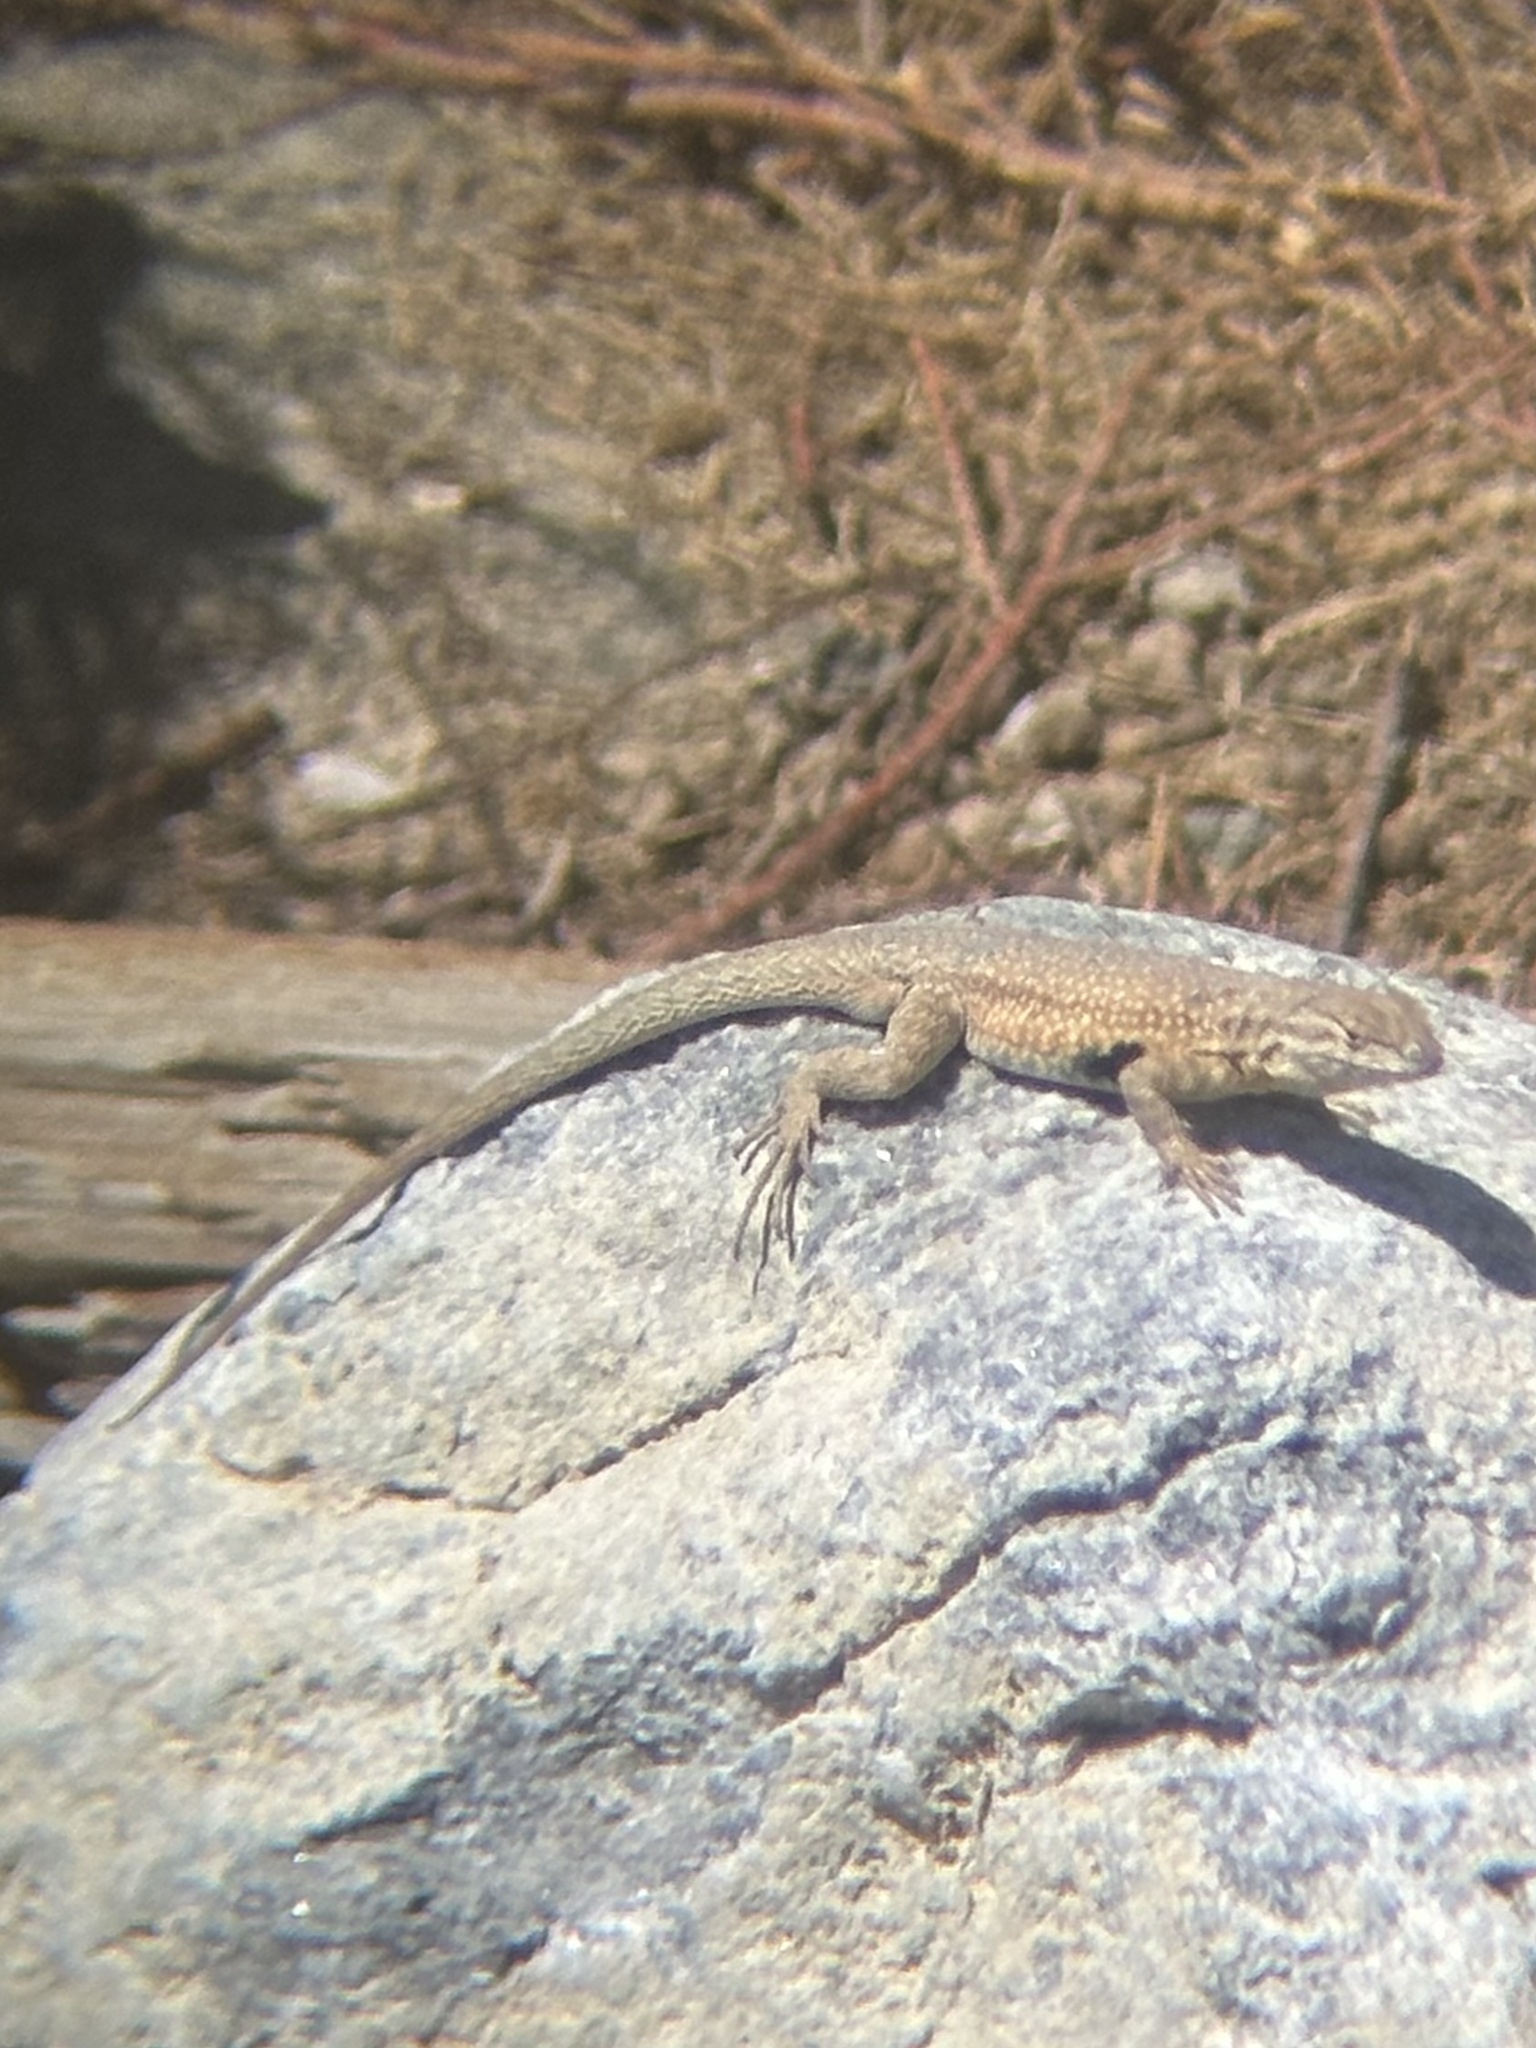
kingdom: Animalia
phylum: Chordata
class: Squamata
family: Phrynosomatidae
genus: Uta
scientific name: Uta stansburiana
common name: Side-blotched lizard
